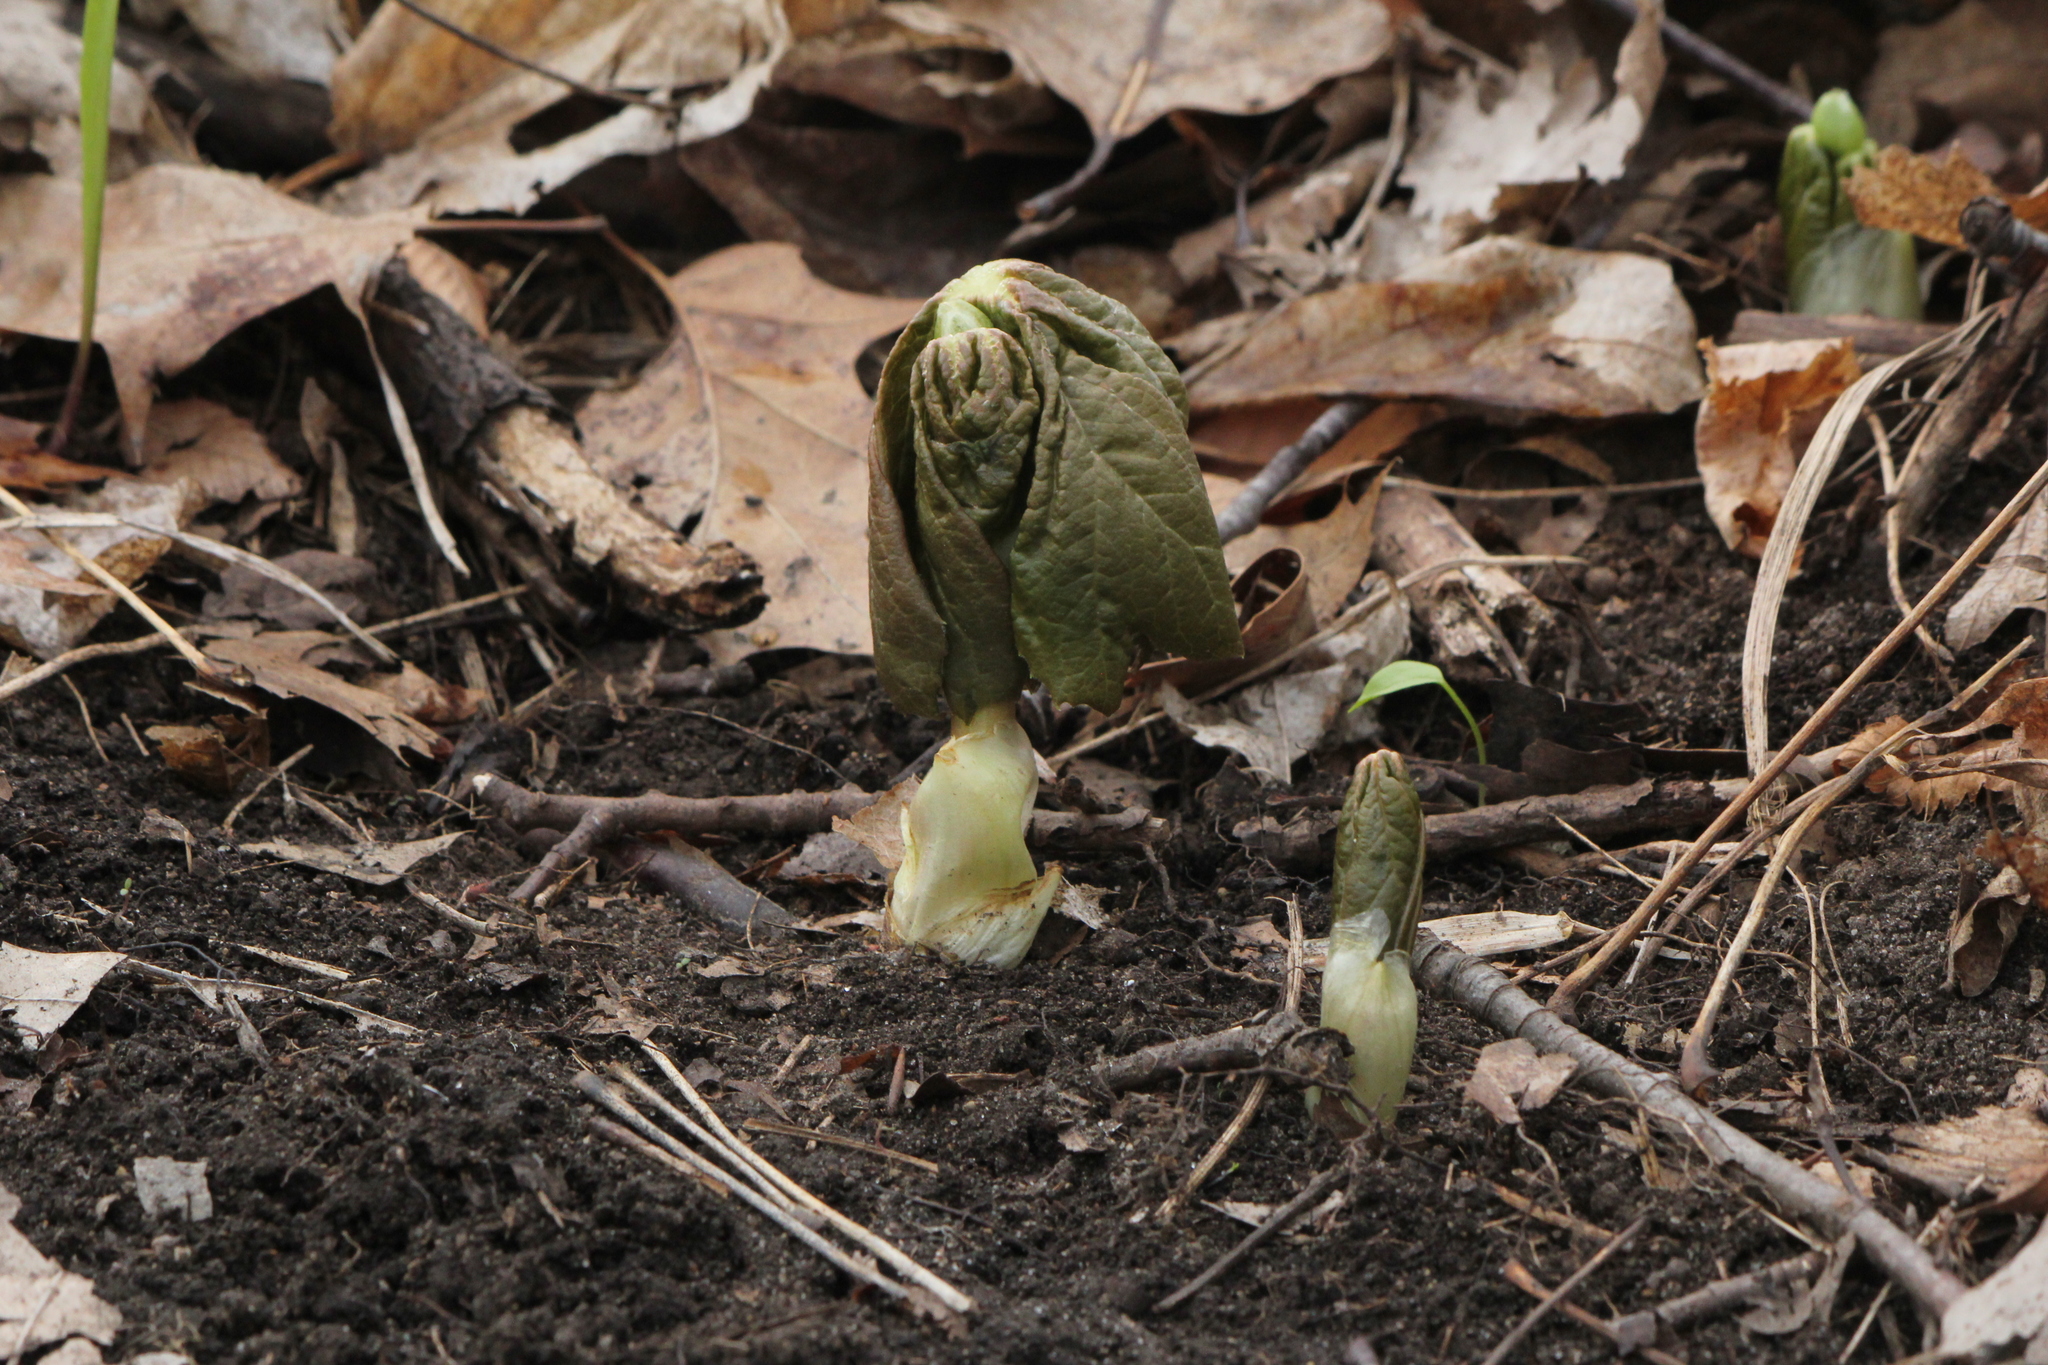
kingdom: Plantae
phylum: Tracheophyta
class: Magnoliopsida
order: Ranunculales
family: Berberidaceae
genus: Podophyllum
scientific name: Podophyllum peltatum
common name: Wild mandrake
